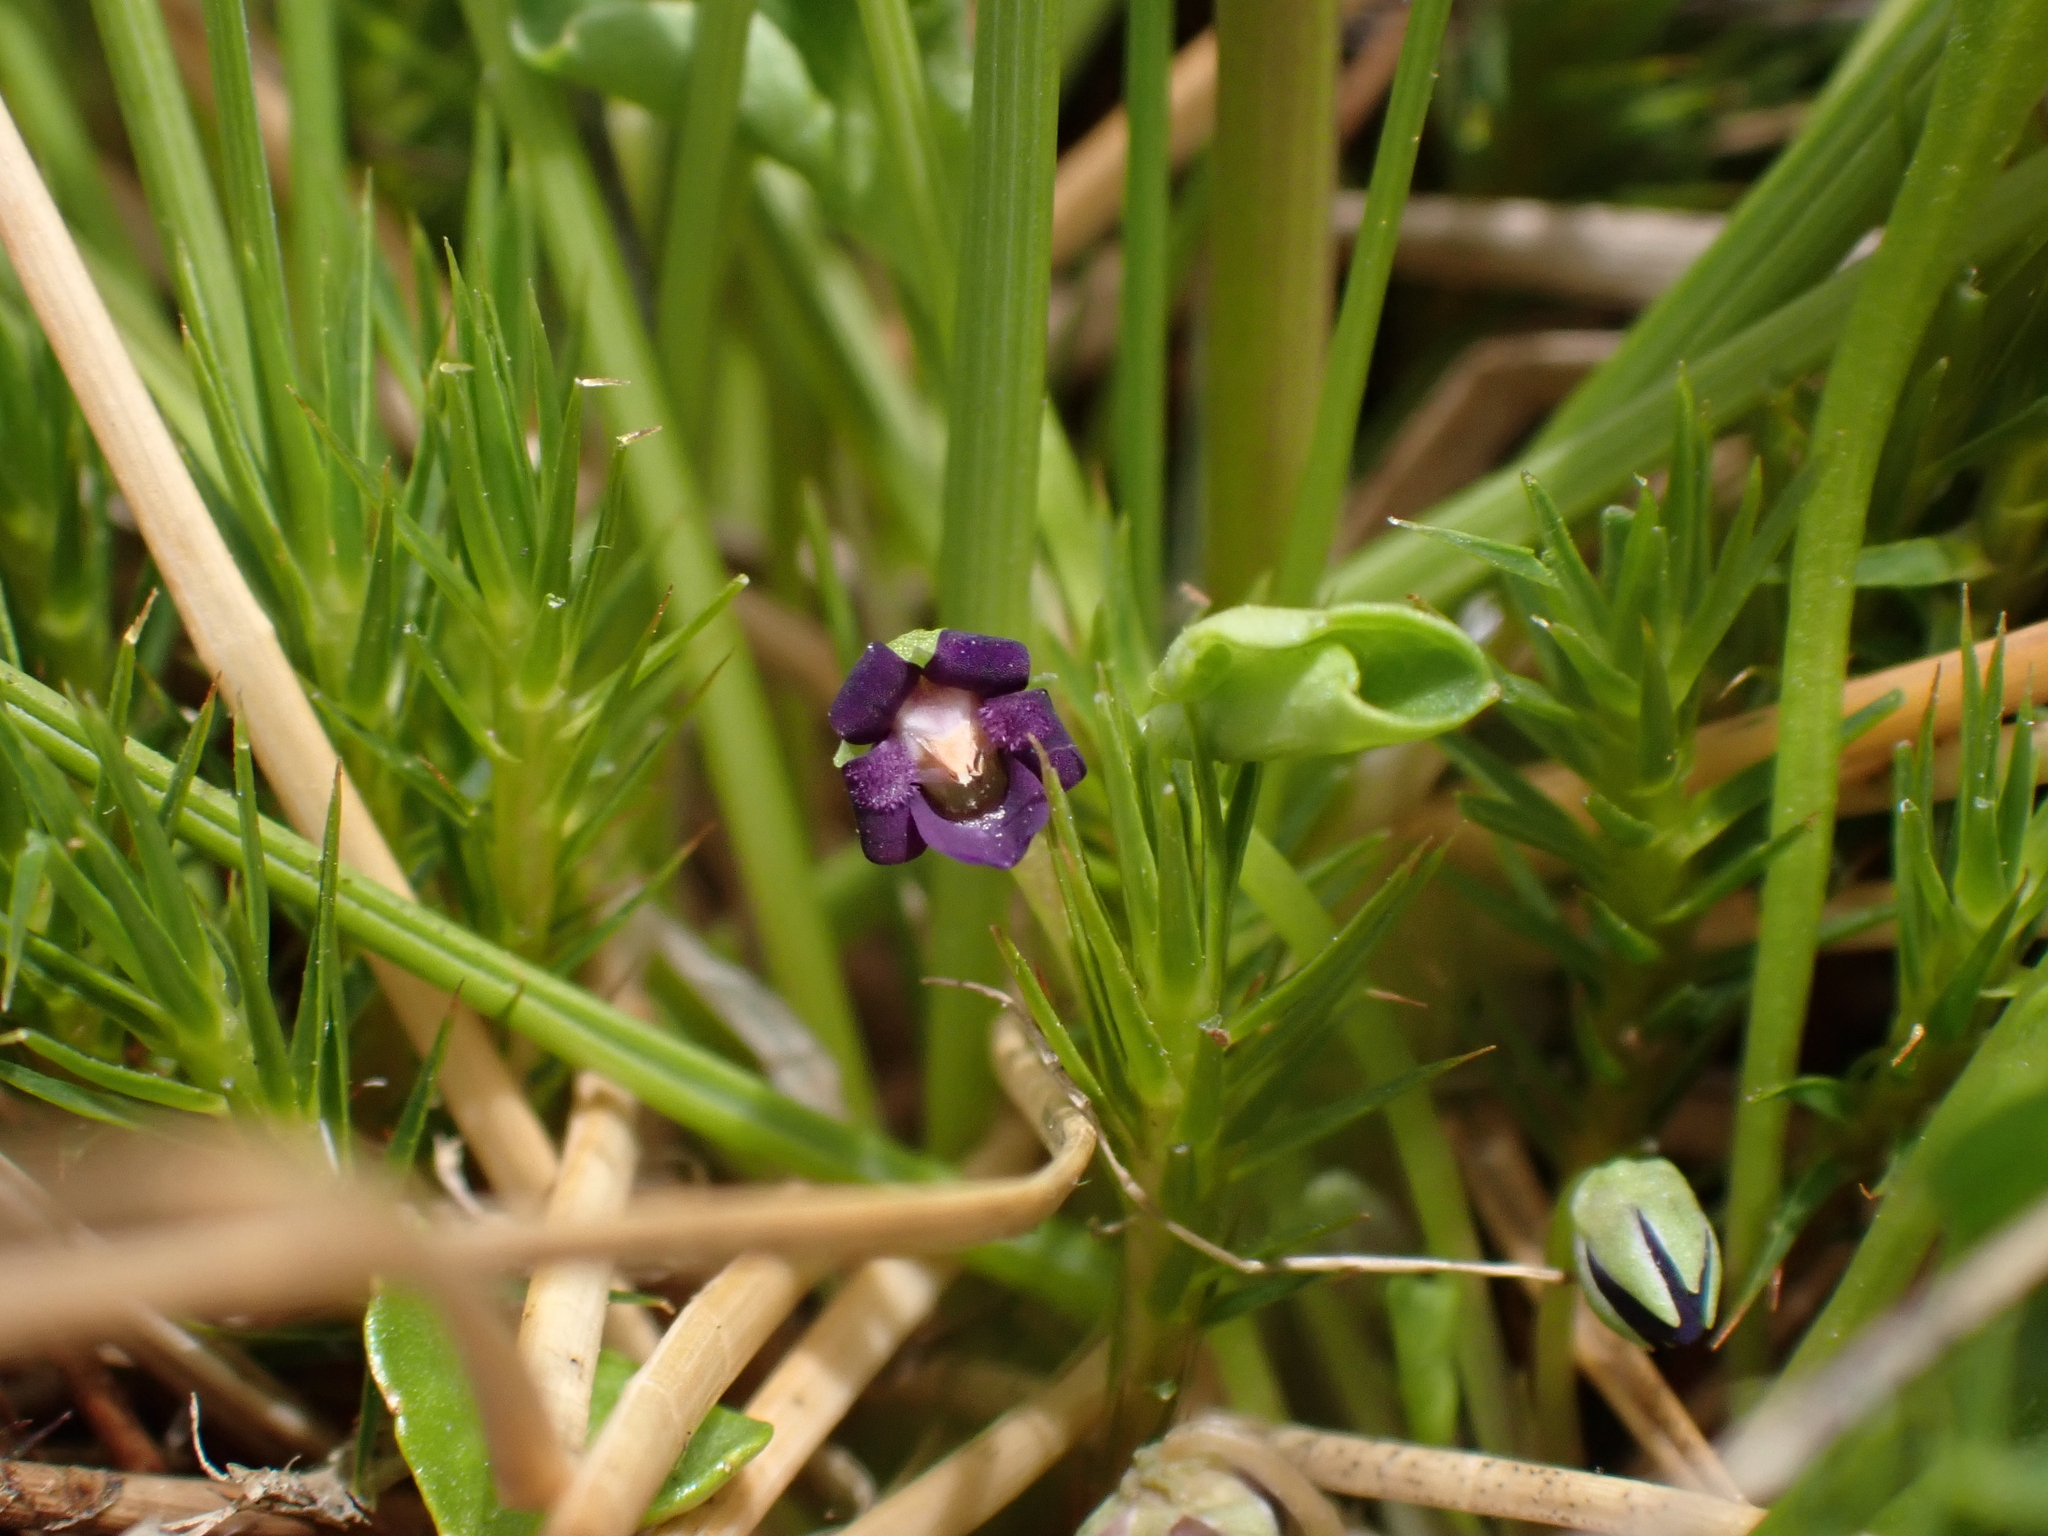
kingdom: Plantae
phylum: Tracheophyta
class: Magnoliopsida
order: Malpighiales
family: Violaceae
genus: Viola
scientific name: Viola fuscoviolacea
